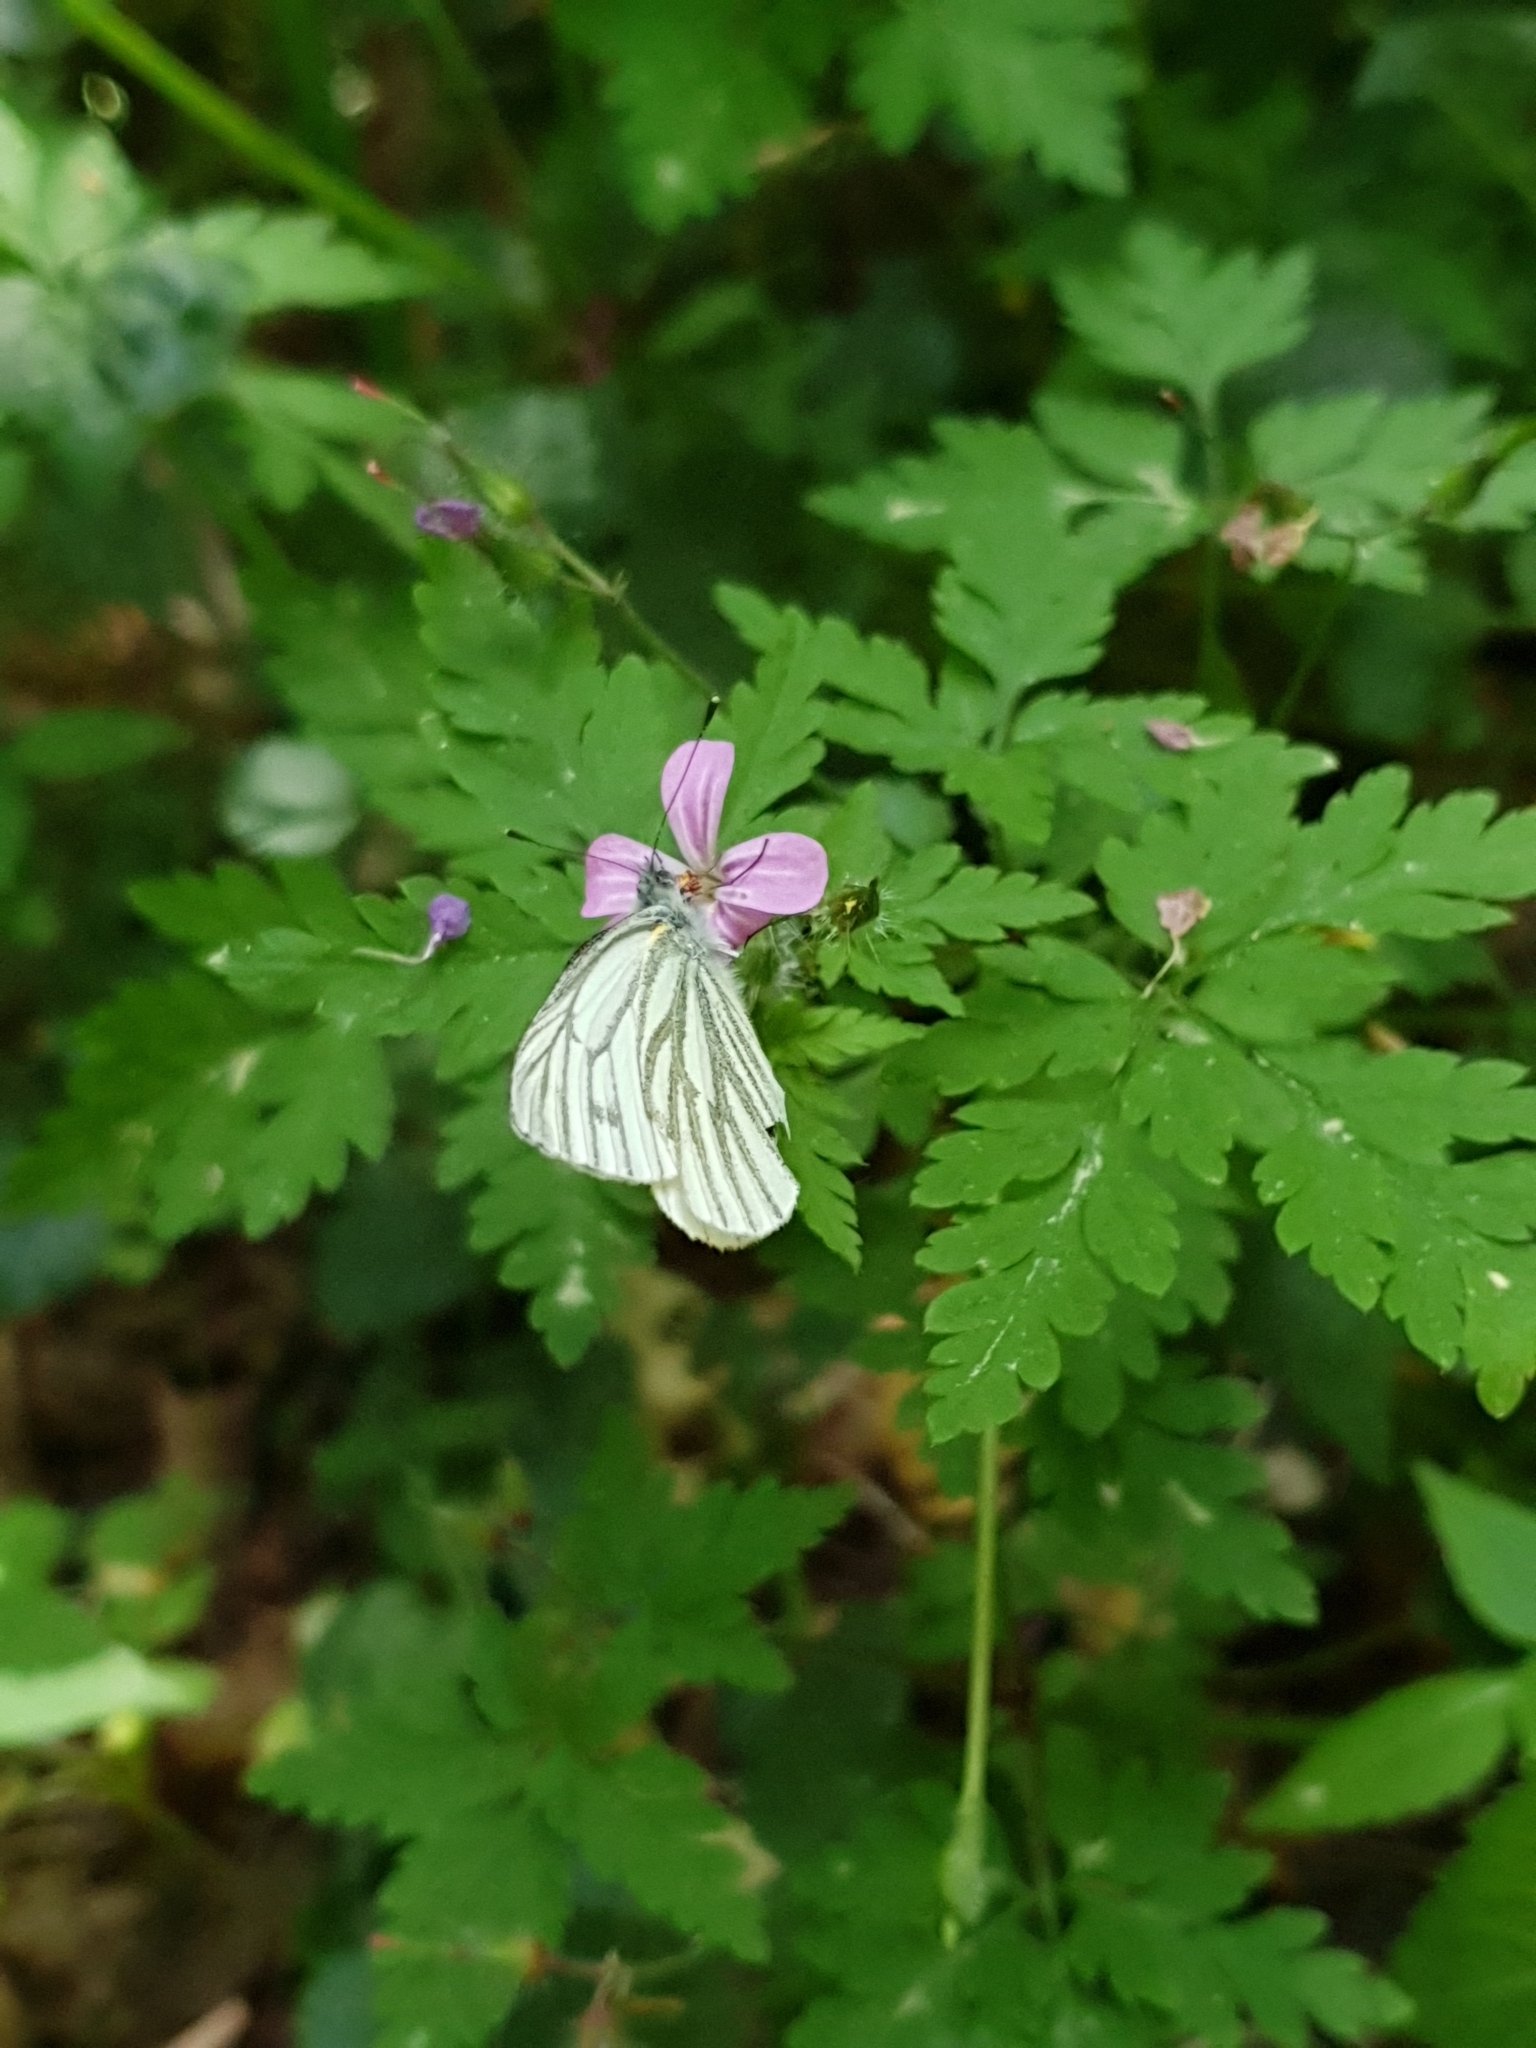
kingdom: Animalia
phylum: Arthropoda
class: Insecta
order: Lepidoptera
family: Pieridae
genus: Pieris
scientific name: Pieris napi
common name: Green-veined white
